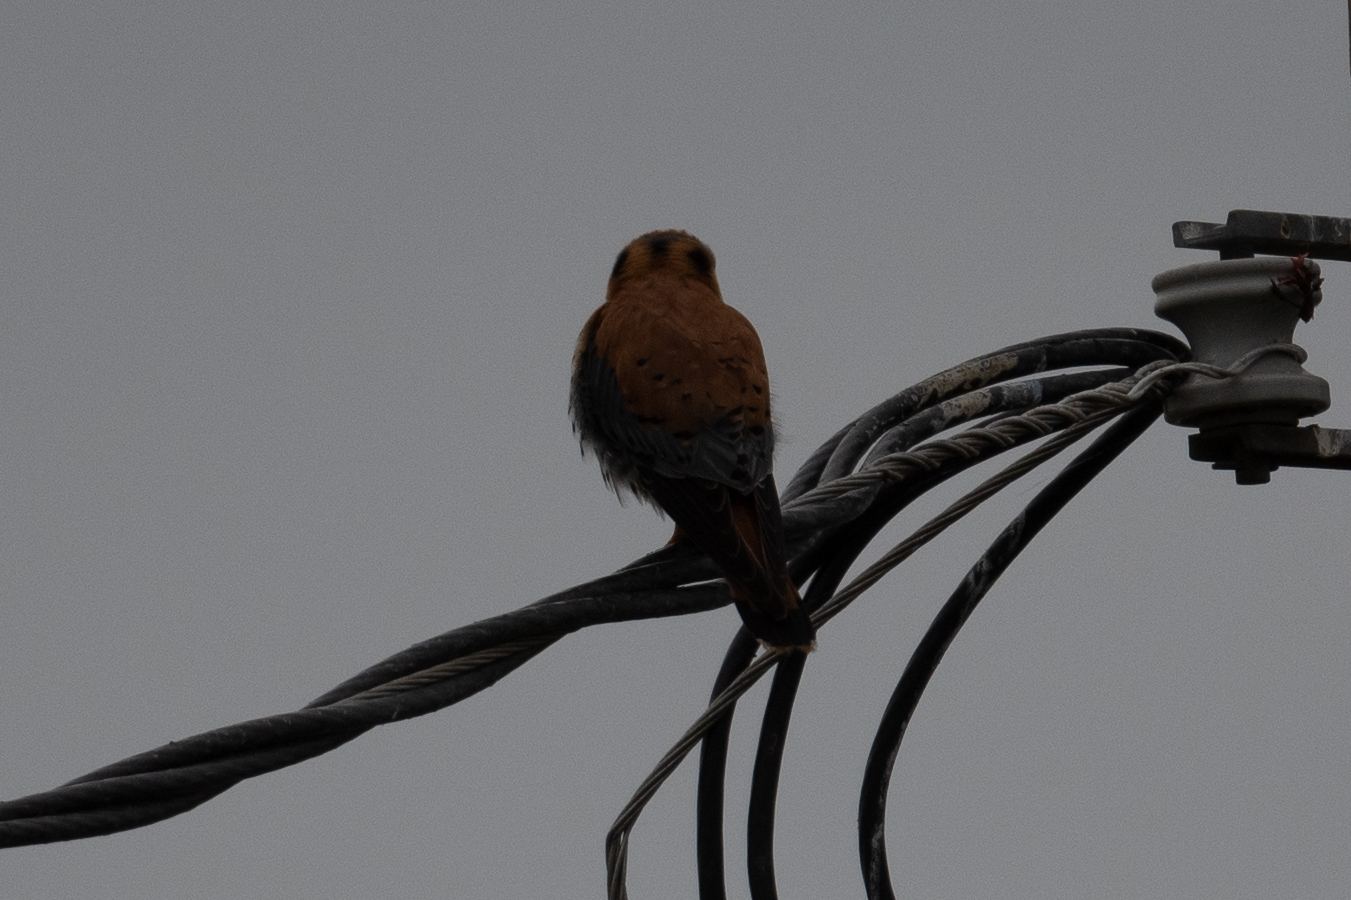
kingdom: Animalia
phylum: Chordata
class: Aves
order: Falconiformes
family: Falconidae
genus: Falco
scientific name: Falco sparverius
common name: American kestrel
